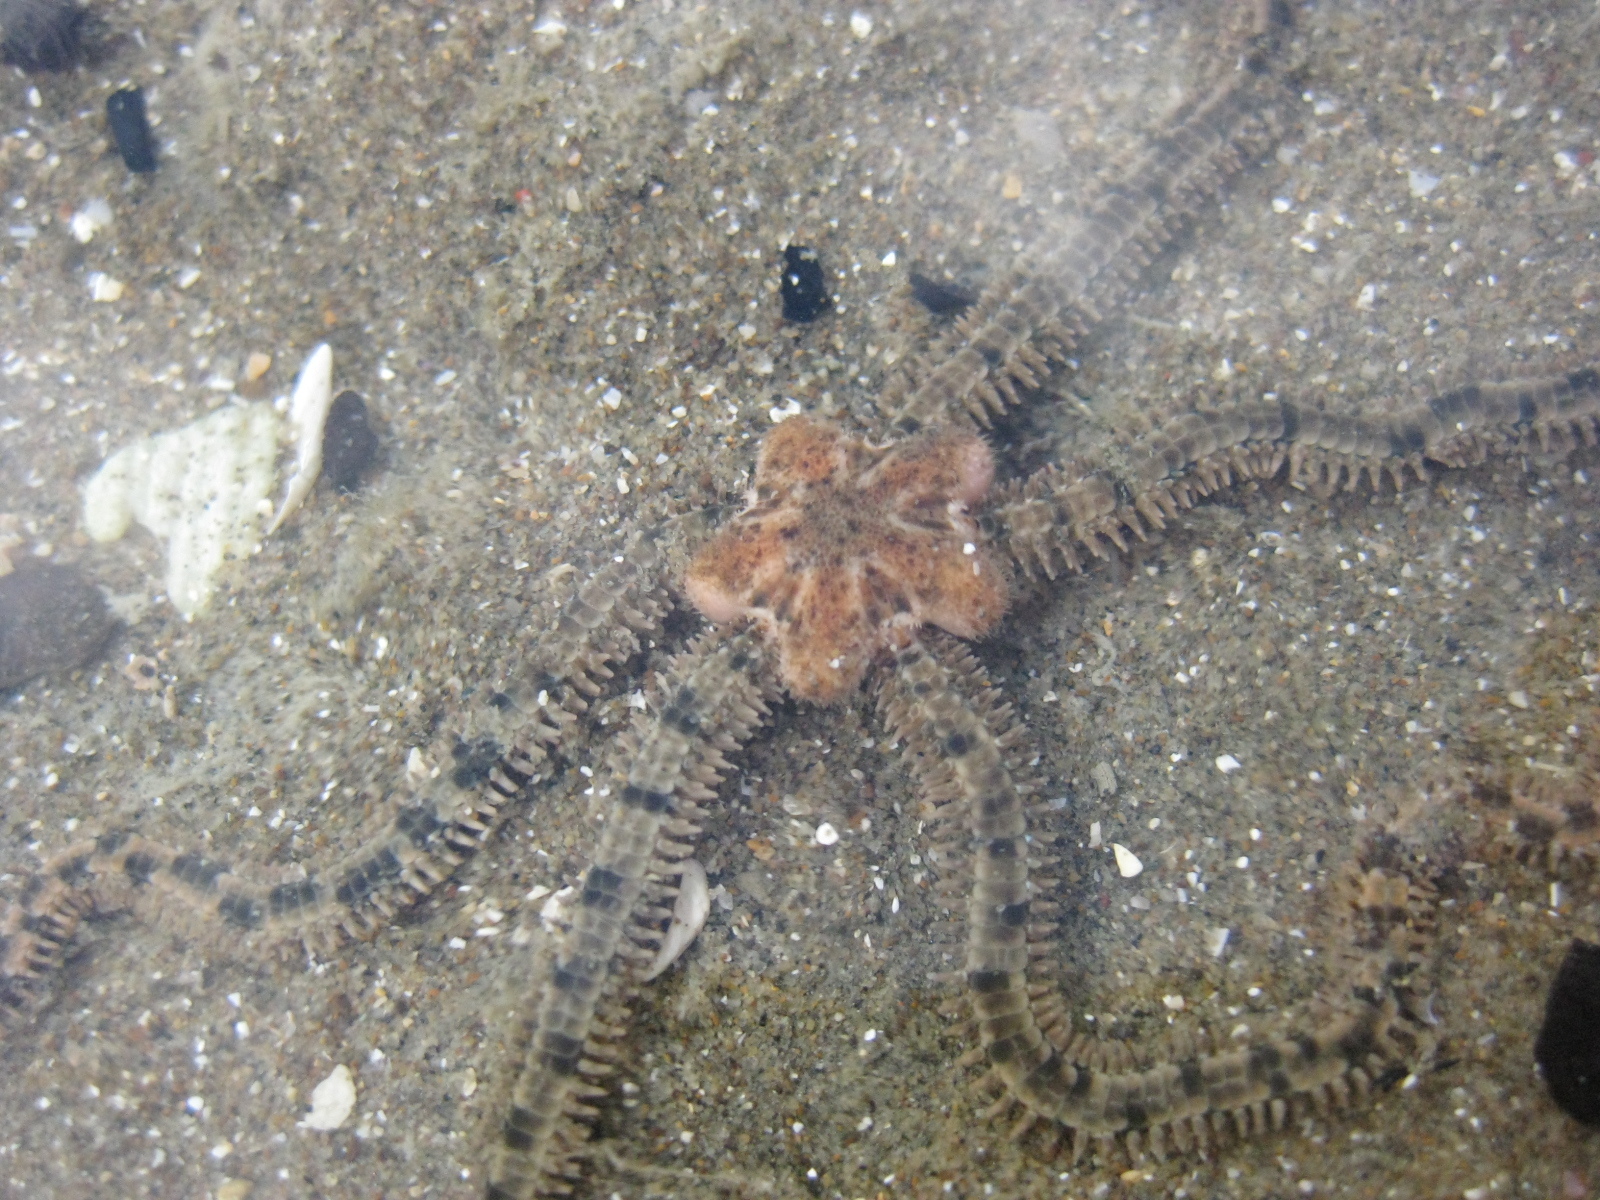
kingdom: Animalia
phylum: Echinodermata
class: Ophiuroidea
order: Amphilepidida
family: Ophiactidae
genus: Ophiactis
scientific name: Ophiactis resiliens
